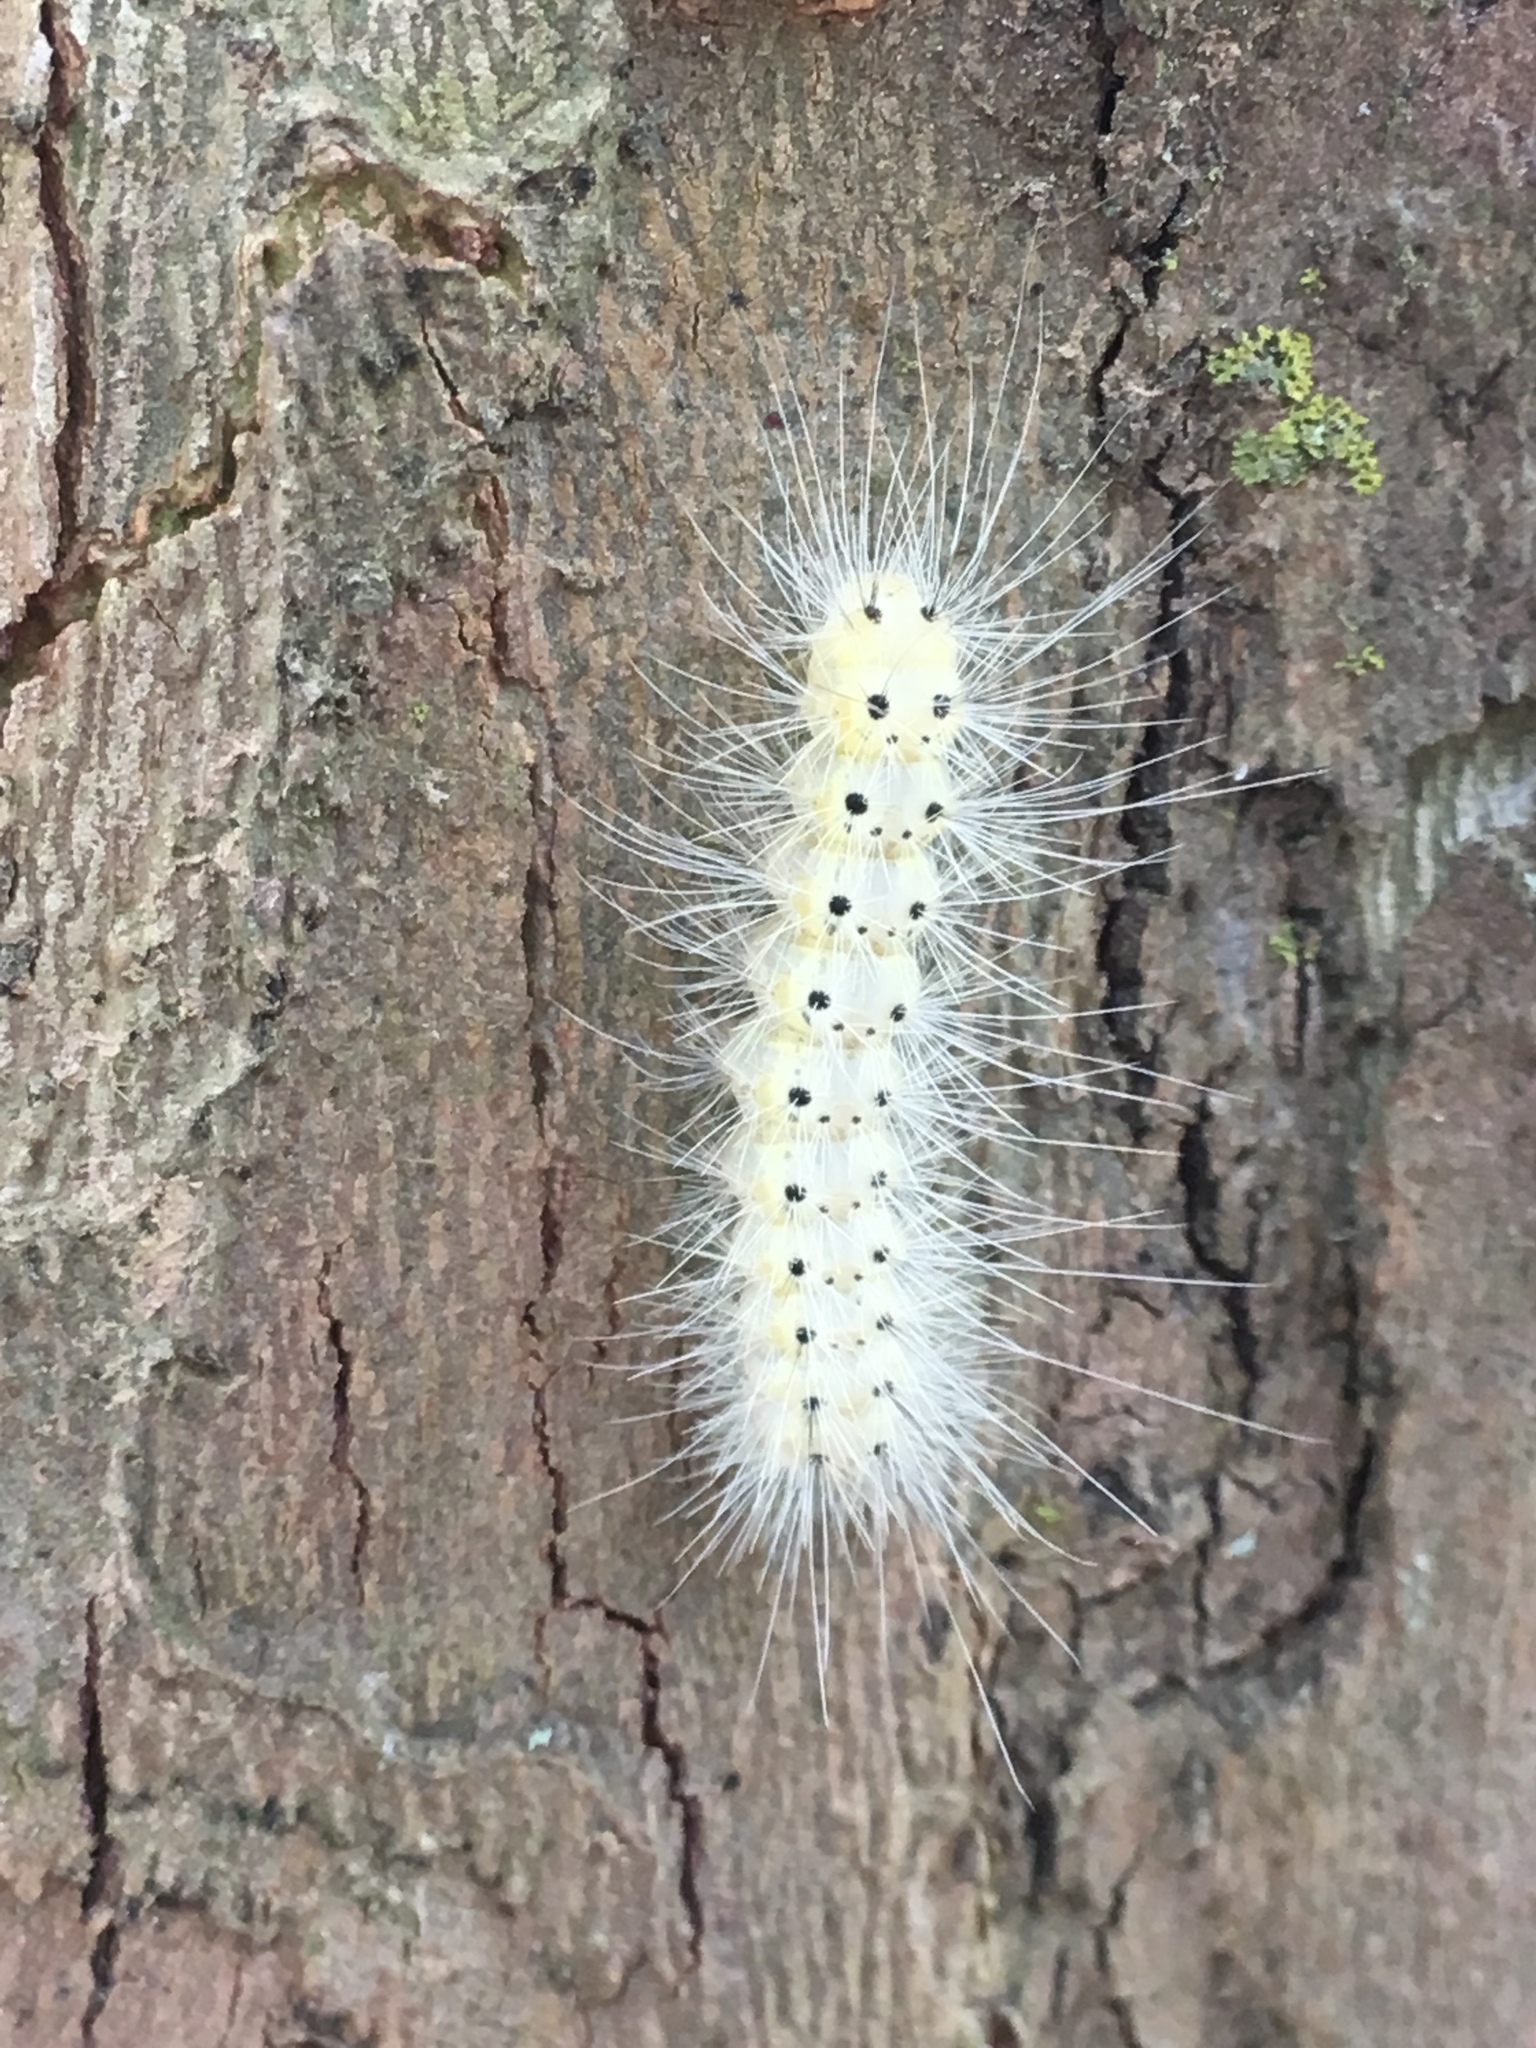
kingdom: Animalia
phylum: Arthropoda
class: Insecta
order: Lepidoptera
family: Erebidae
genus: Hyphantria
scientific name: Hyphantria cunea
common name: American white moth
